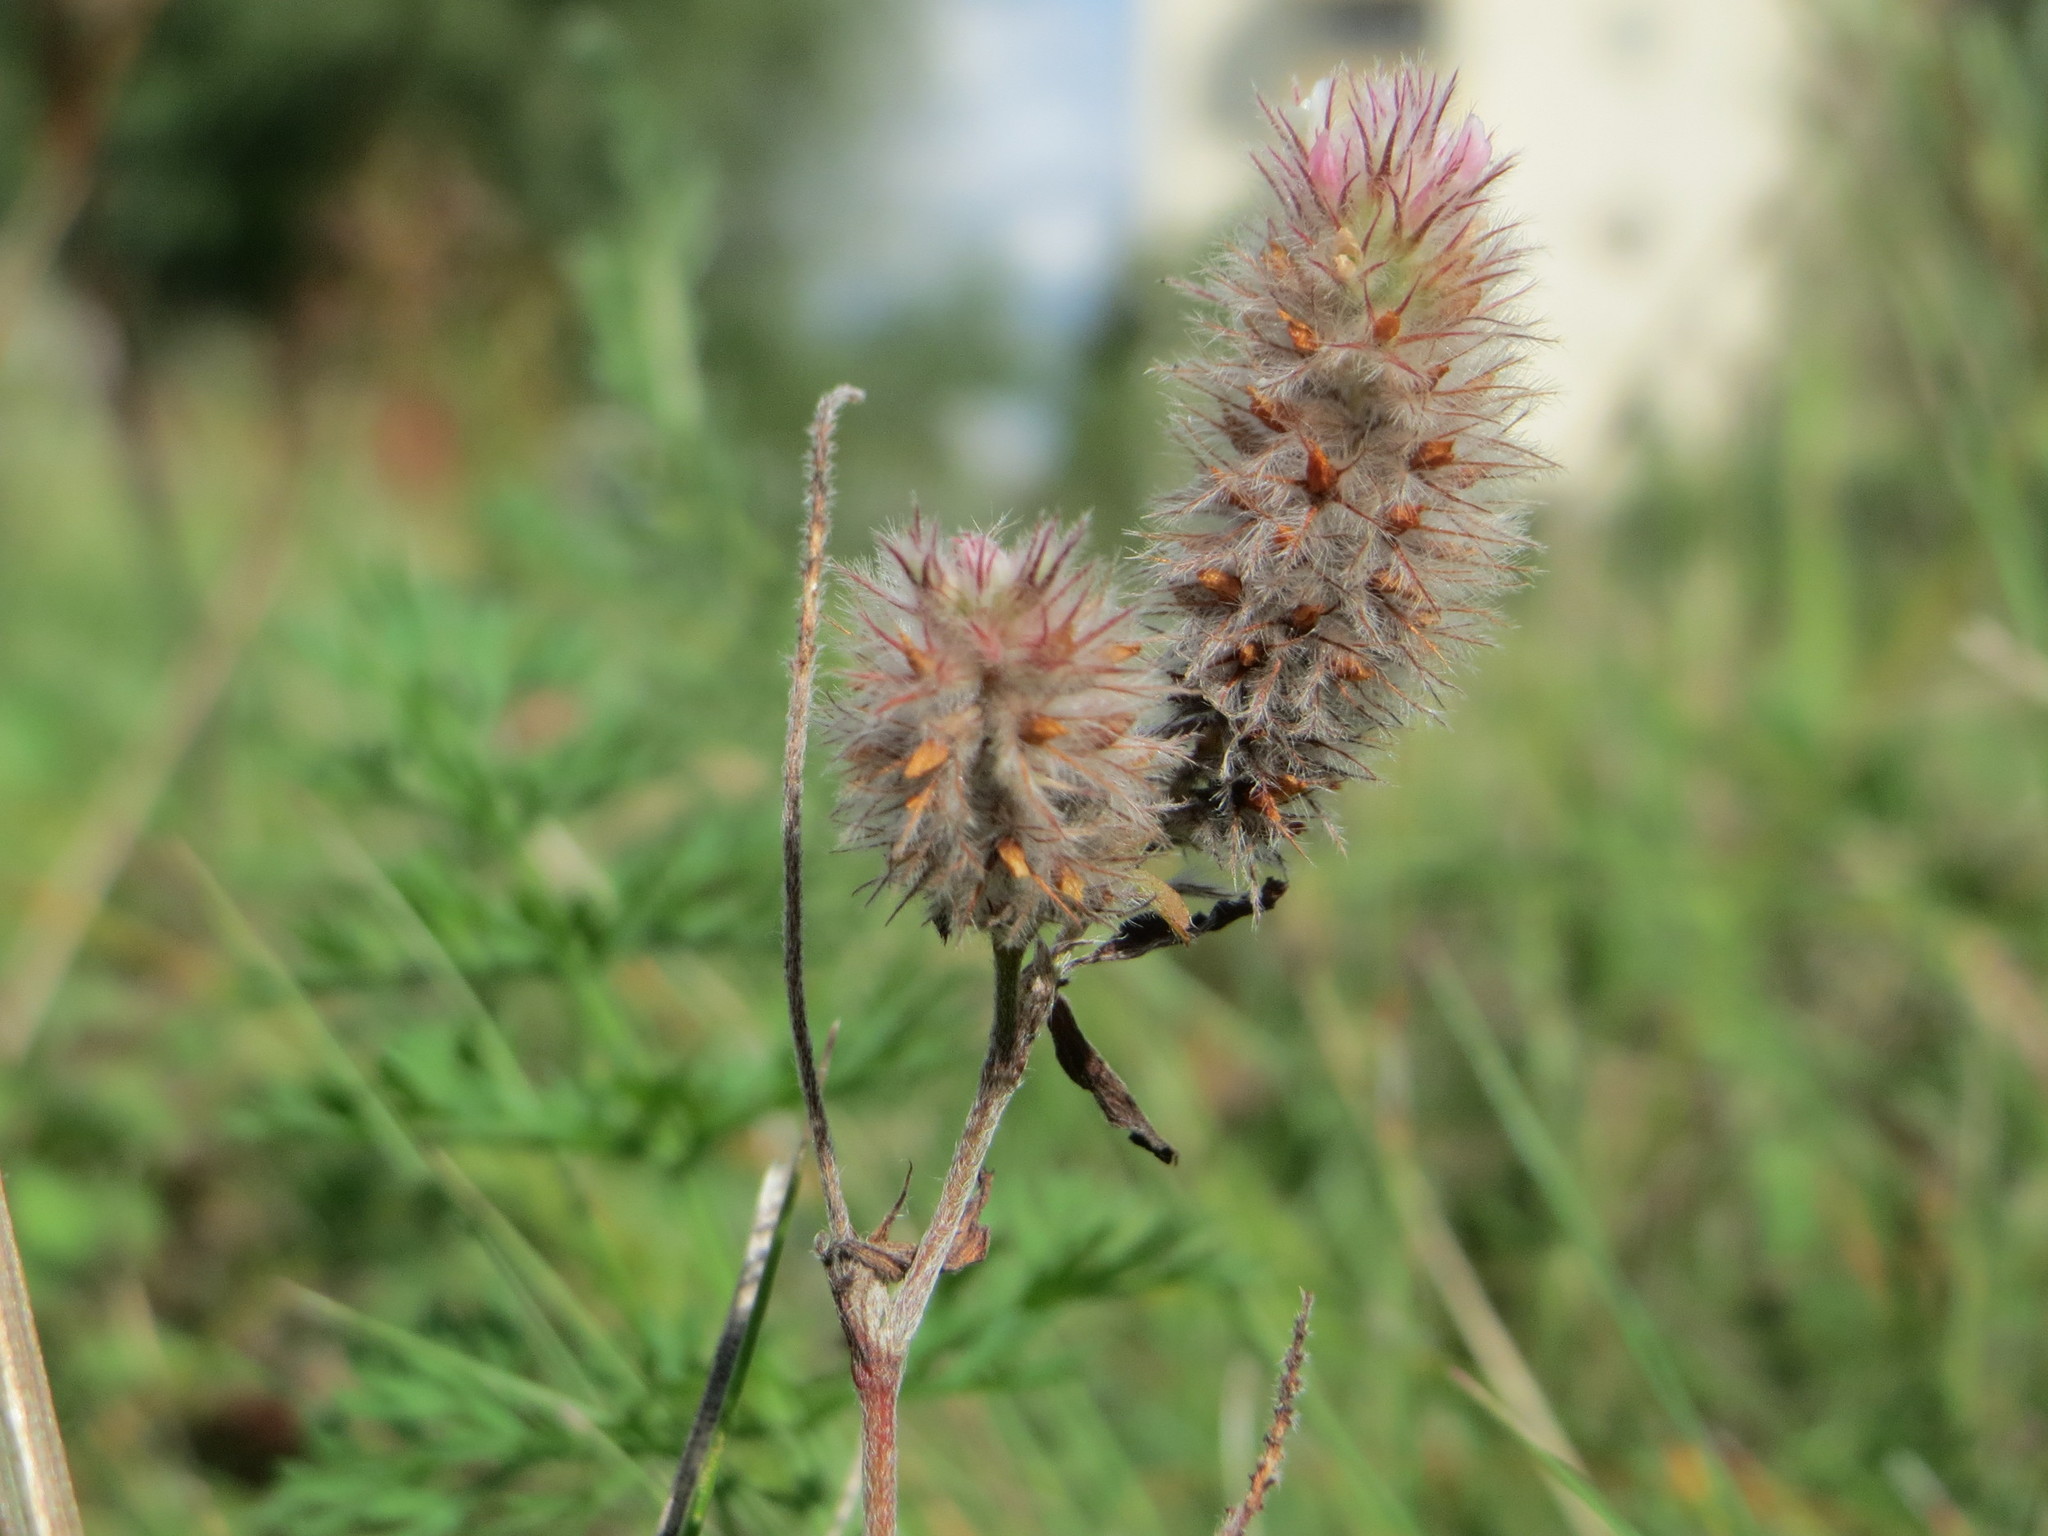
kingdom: Plantae
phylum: Tracheophyta
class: Magnoliopsida
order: Fabales
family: Fabaceae
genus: Trifolium
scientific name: Trifolium arvense
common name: Hare's-foot clover
